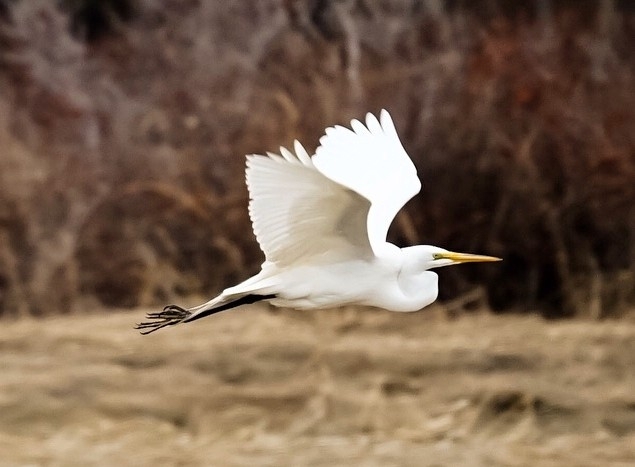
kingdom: Animalia
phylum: Chordata
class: Aves
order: Pelecaniformes
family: Ardeidae
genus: Ardea
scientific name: Ardea alba
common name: Great egret
